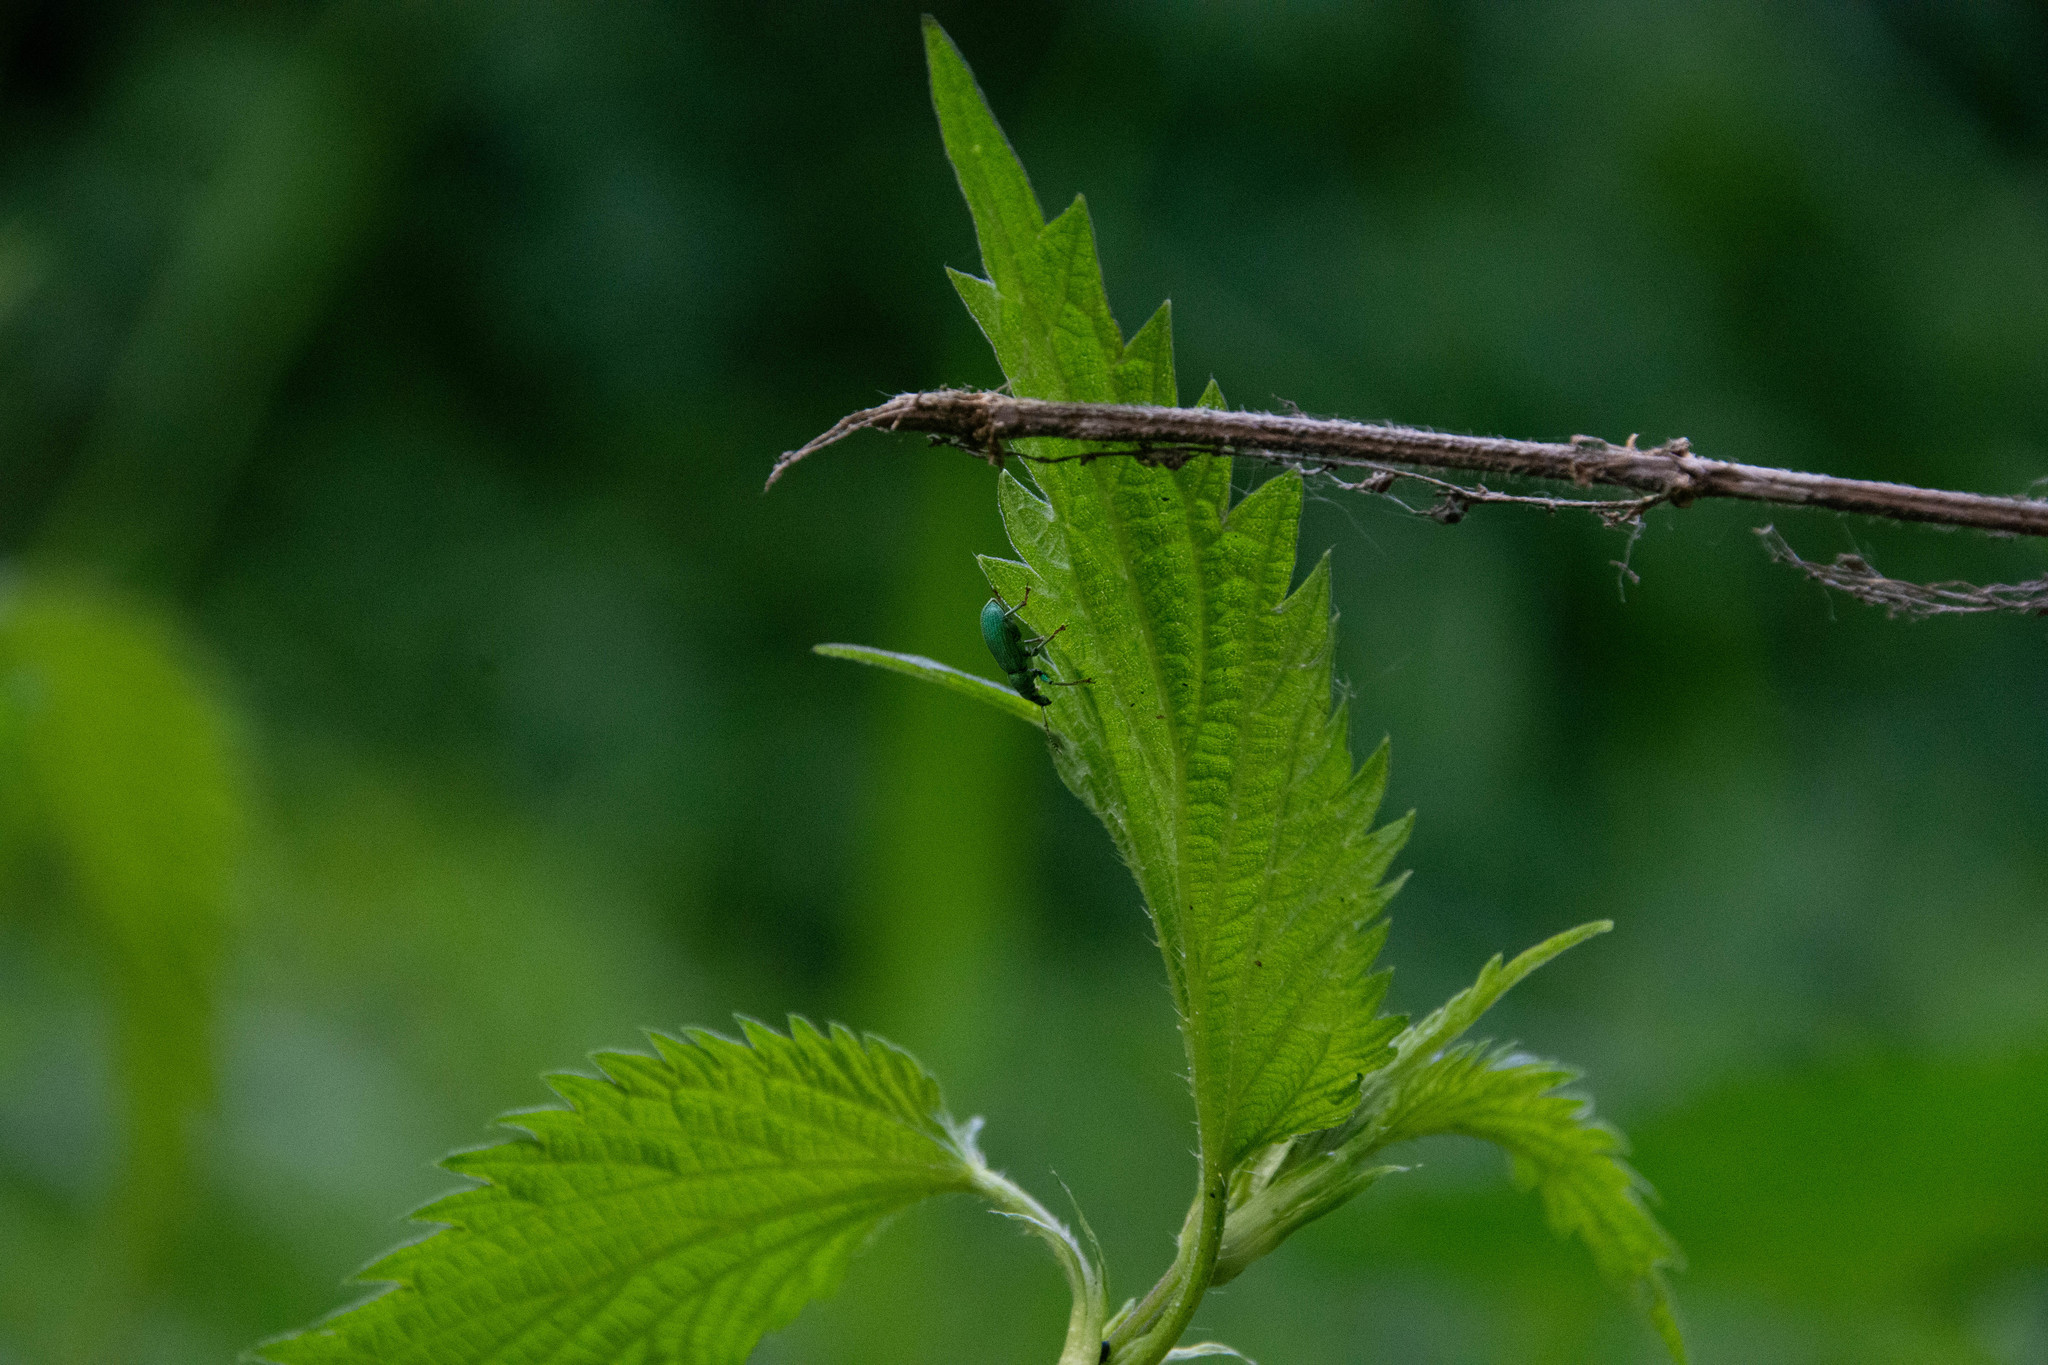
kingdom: Animalia
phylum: Arthropoda
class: Insecta
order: Coleoptera
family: Curculionidae
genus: Phyllobius
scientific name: Phyllobius pomaceus
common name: Green nettle weevil
